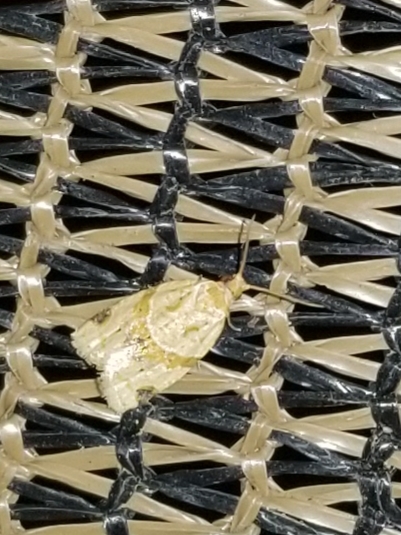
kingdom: Animalia
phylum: Arthropoda
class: Insecta
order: Lepidoptera
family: Tortricidae
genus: Clepsis
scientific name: Clepsis peritana
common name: Garden tortrix
